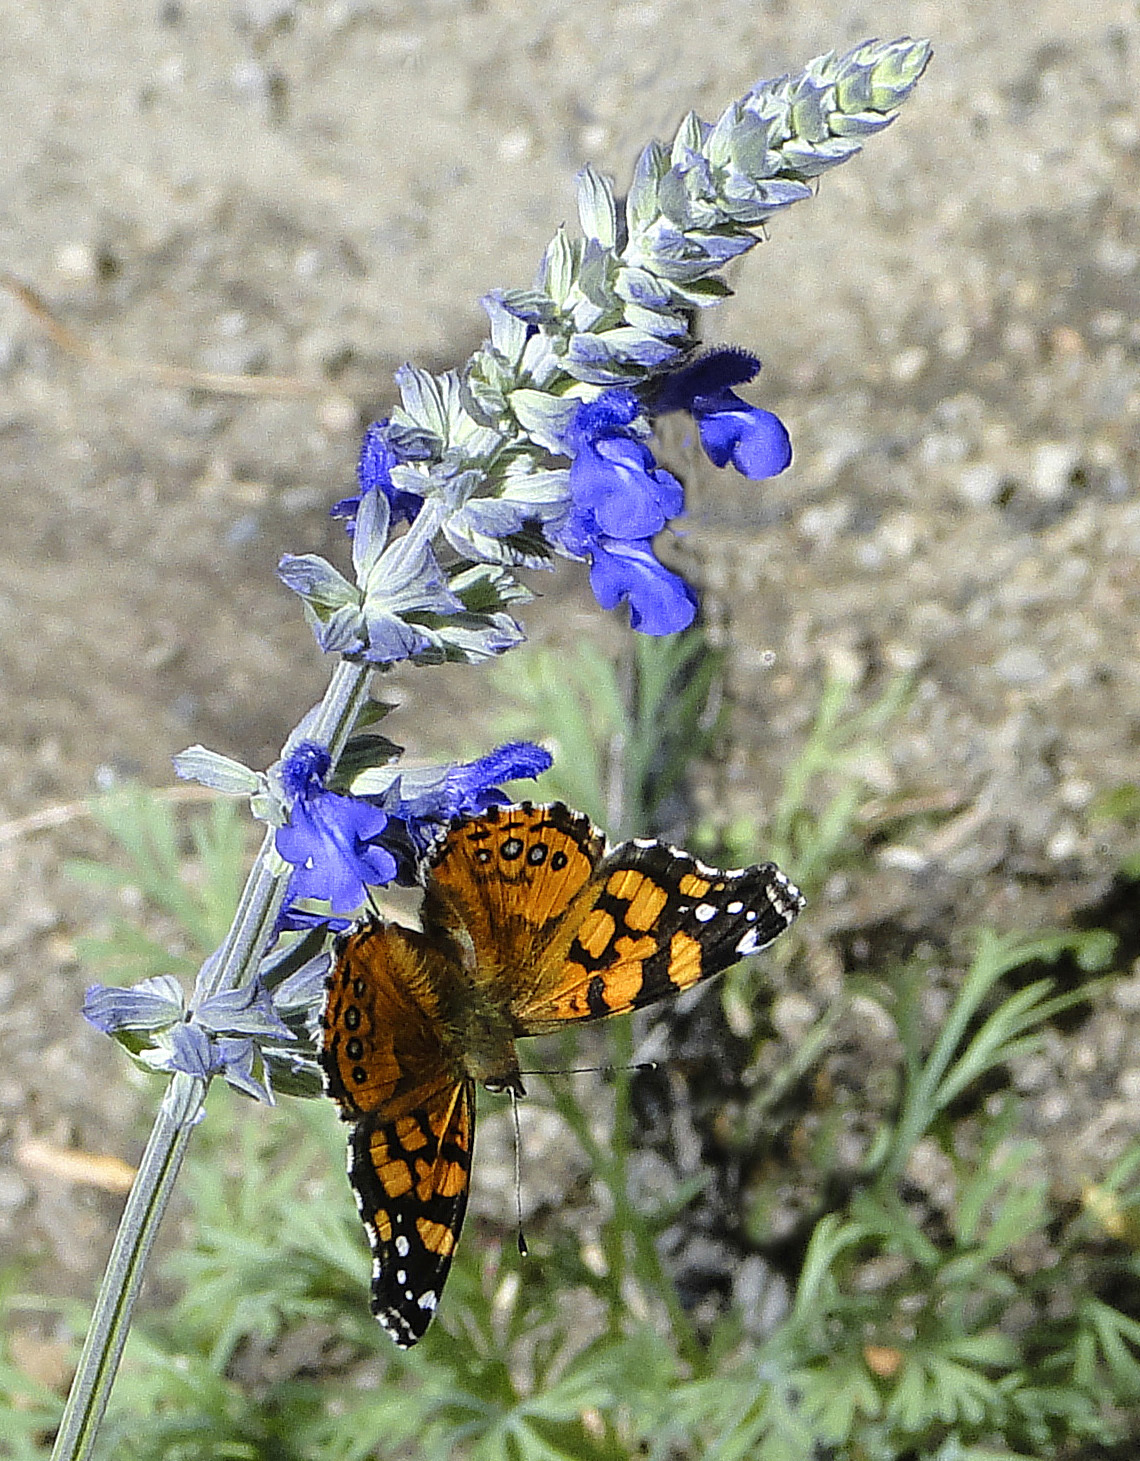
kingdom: Animalia
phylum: Arthropoda
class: Insecta
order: Lepidoptera
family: Nymphalidae
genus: Vanessa
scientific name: Vanessa annabella
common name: West coast lady
